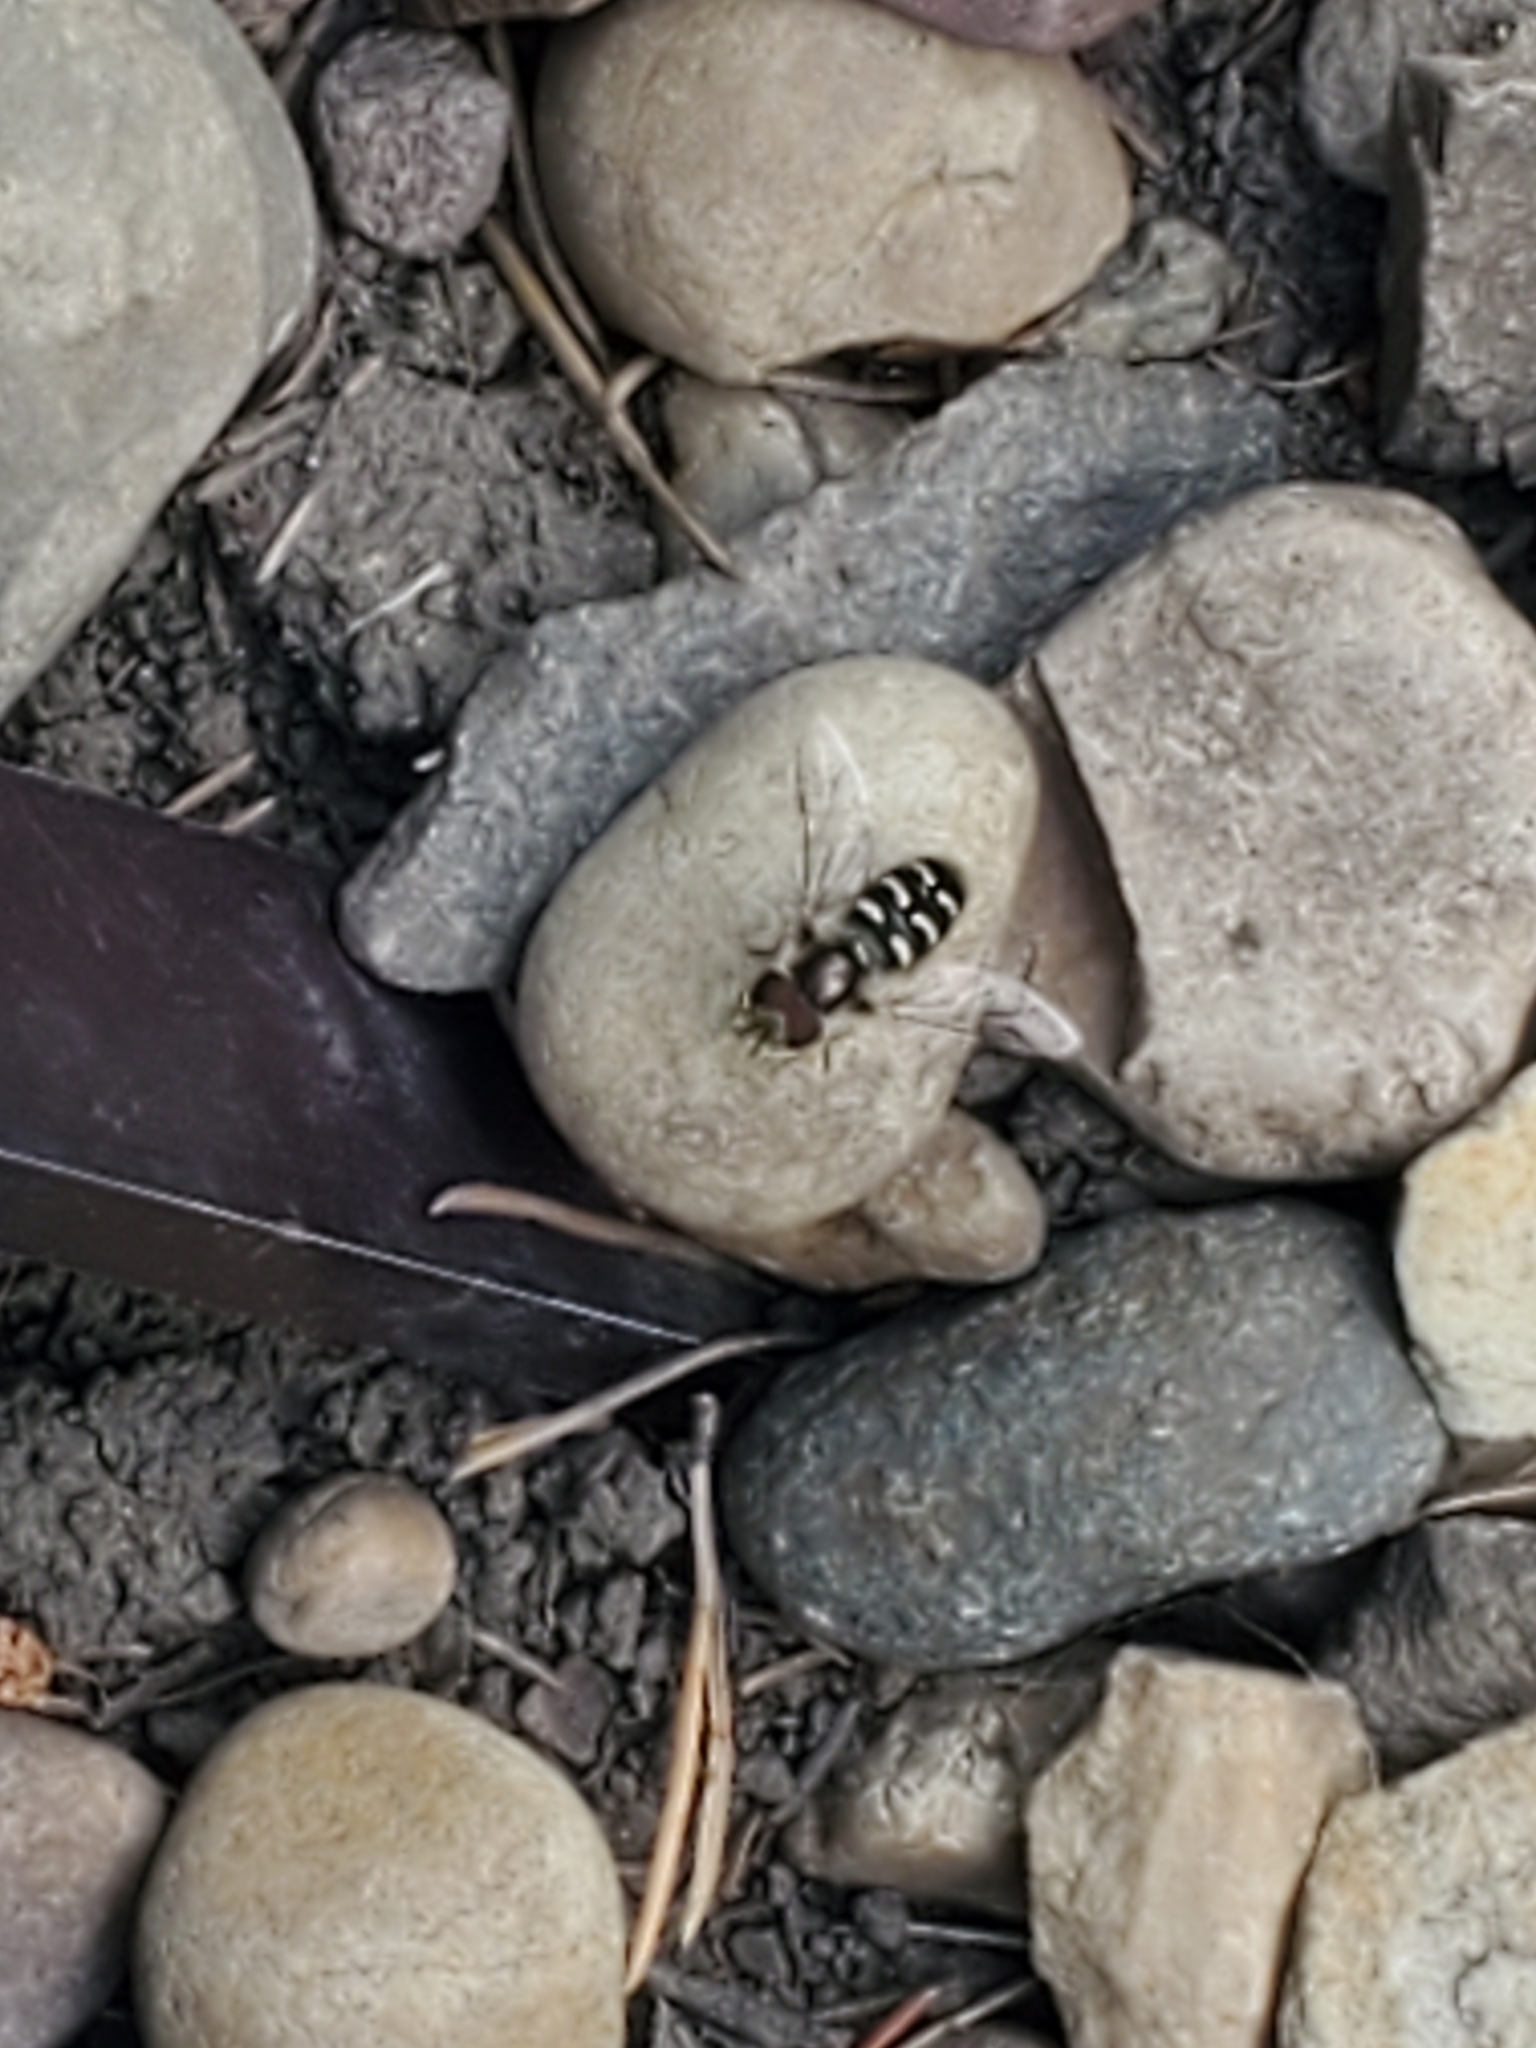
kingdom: Animalia
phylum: Arthropoda
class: Insecta
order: Diptera
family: Syrphidae
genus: Scaeva
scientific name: Scaeva affinis
